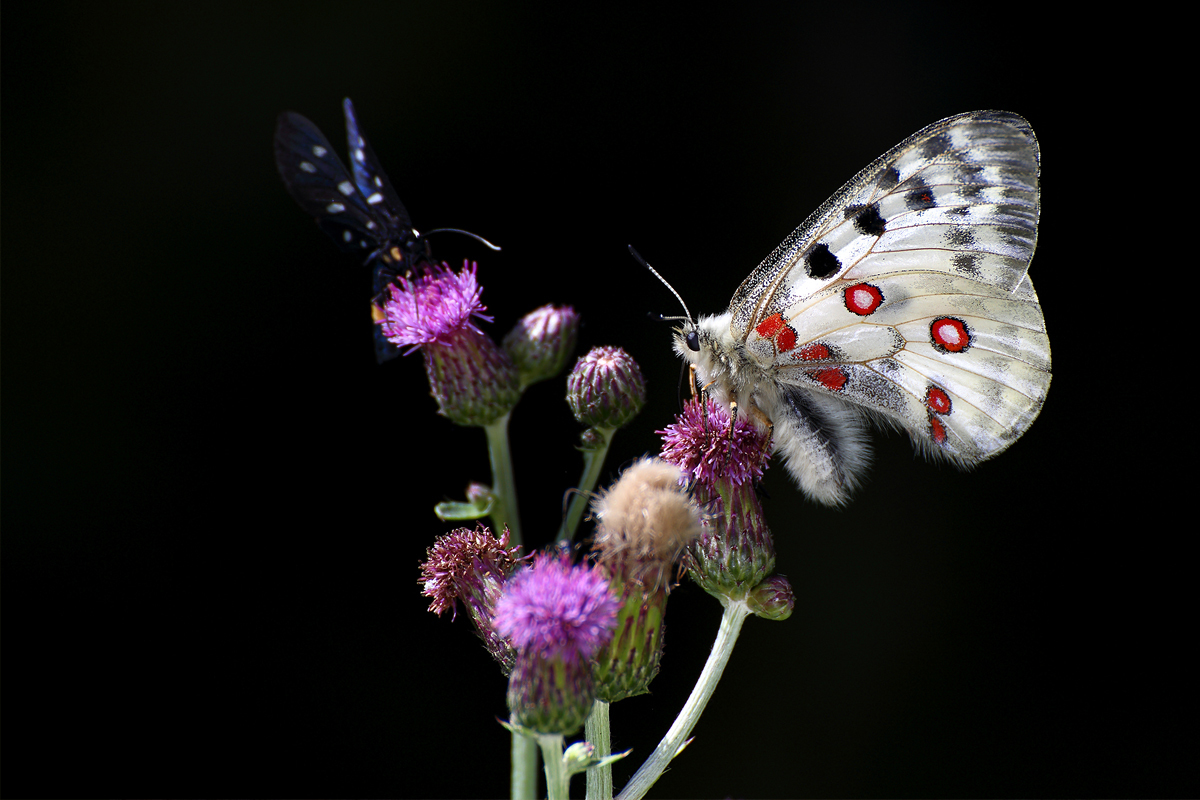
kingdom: Animalia
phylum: Arthropoda
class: Insecta
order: Lepidoptera
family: Papilionidae
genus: Parnassius
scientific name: Parnassius apollo
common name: Apollo
